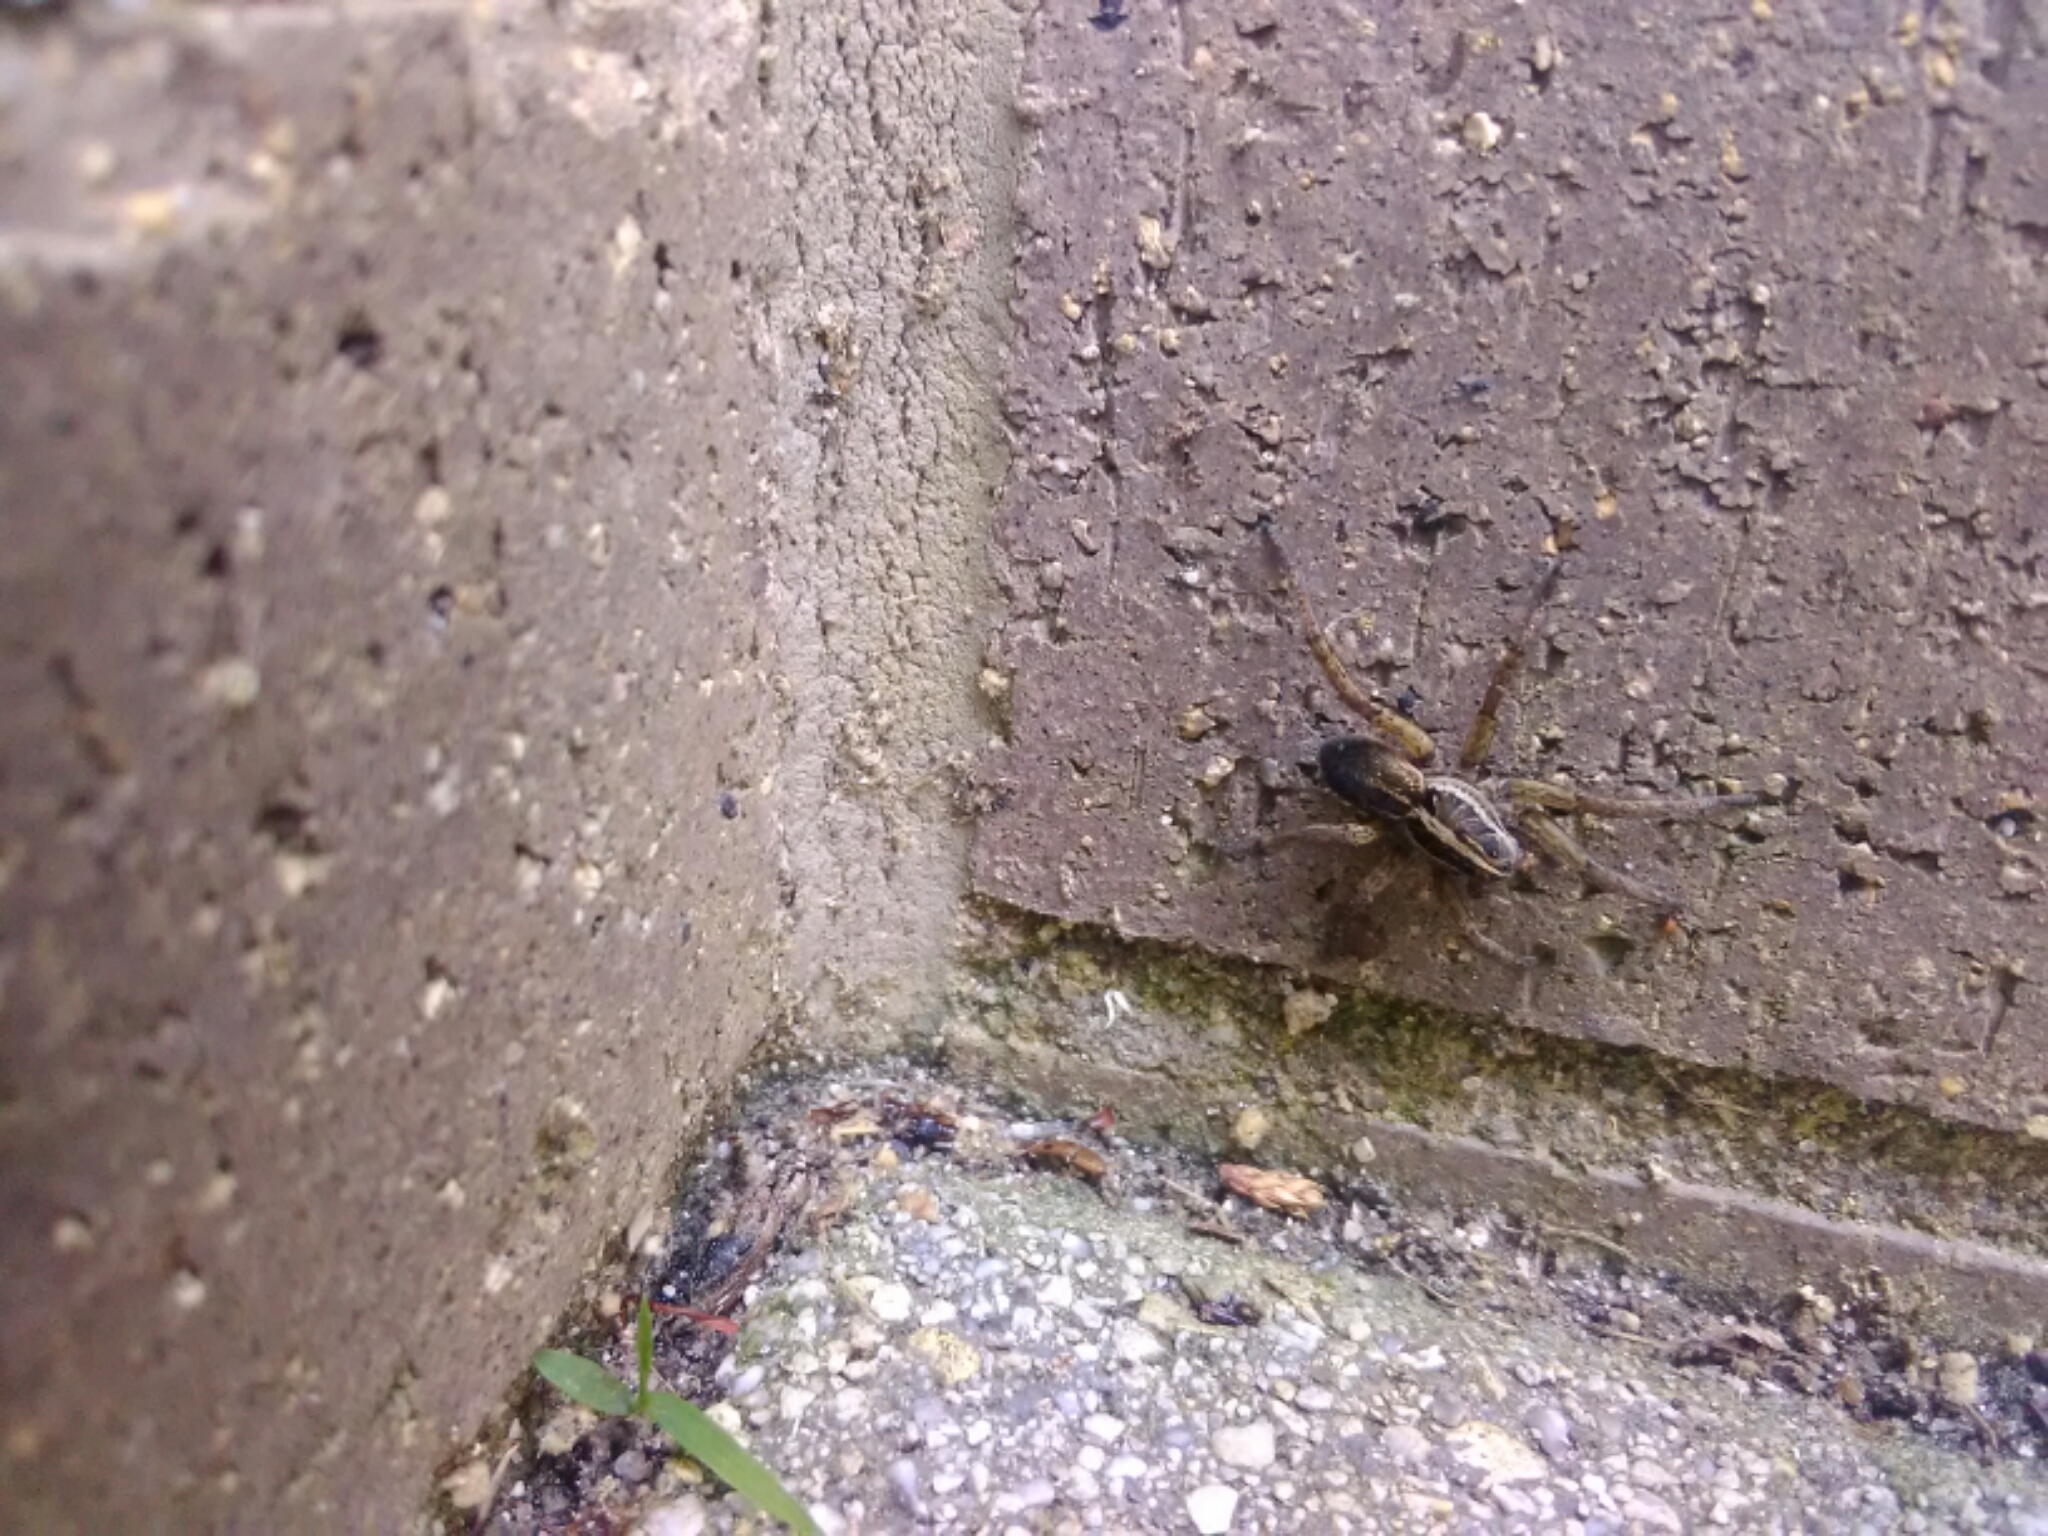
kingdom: Animalia
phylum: Arthropoda
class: Arachnida
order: Araneae
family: Lycosidae
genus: Tigrosa
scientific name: Tigrosa annexa
